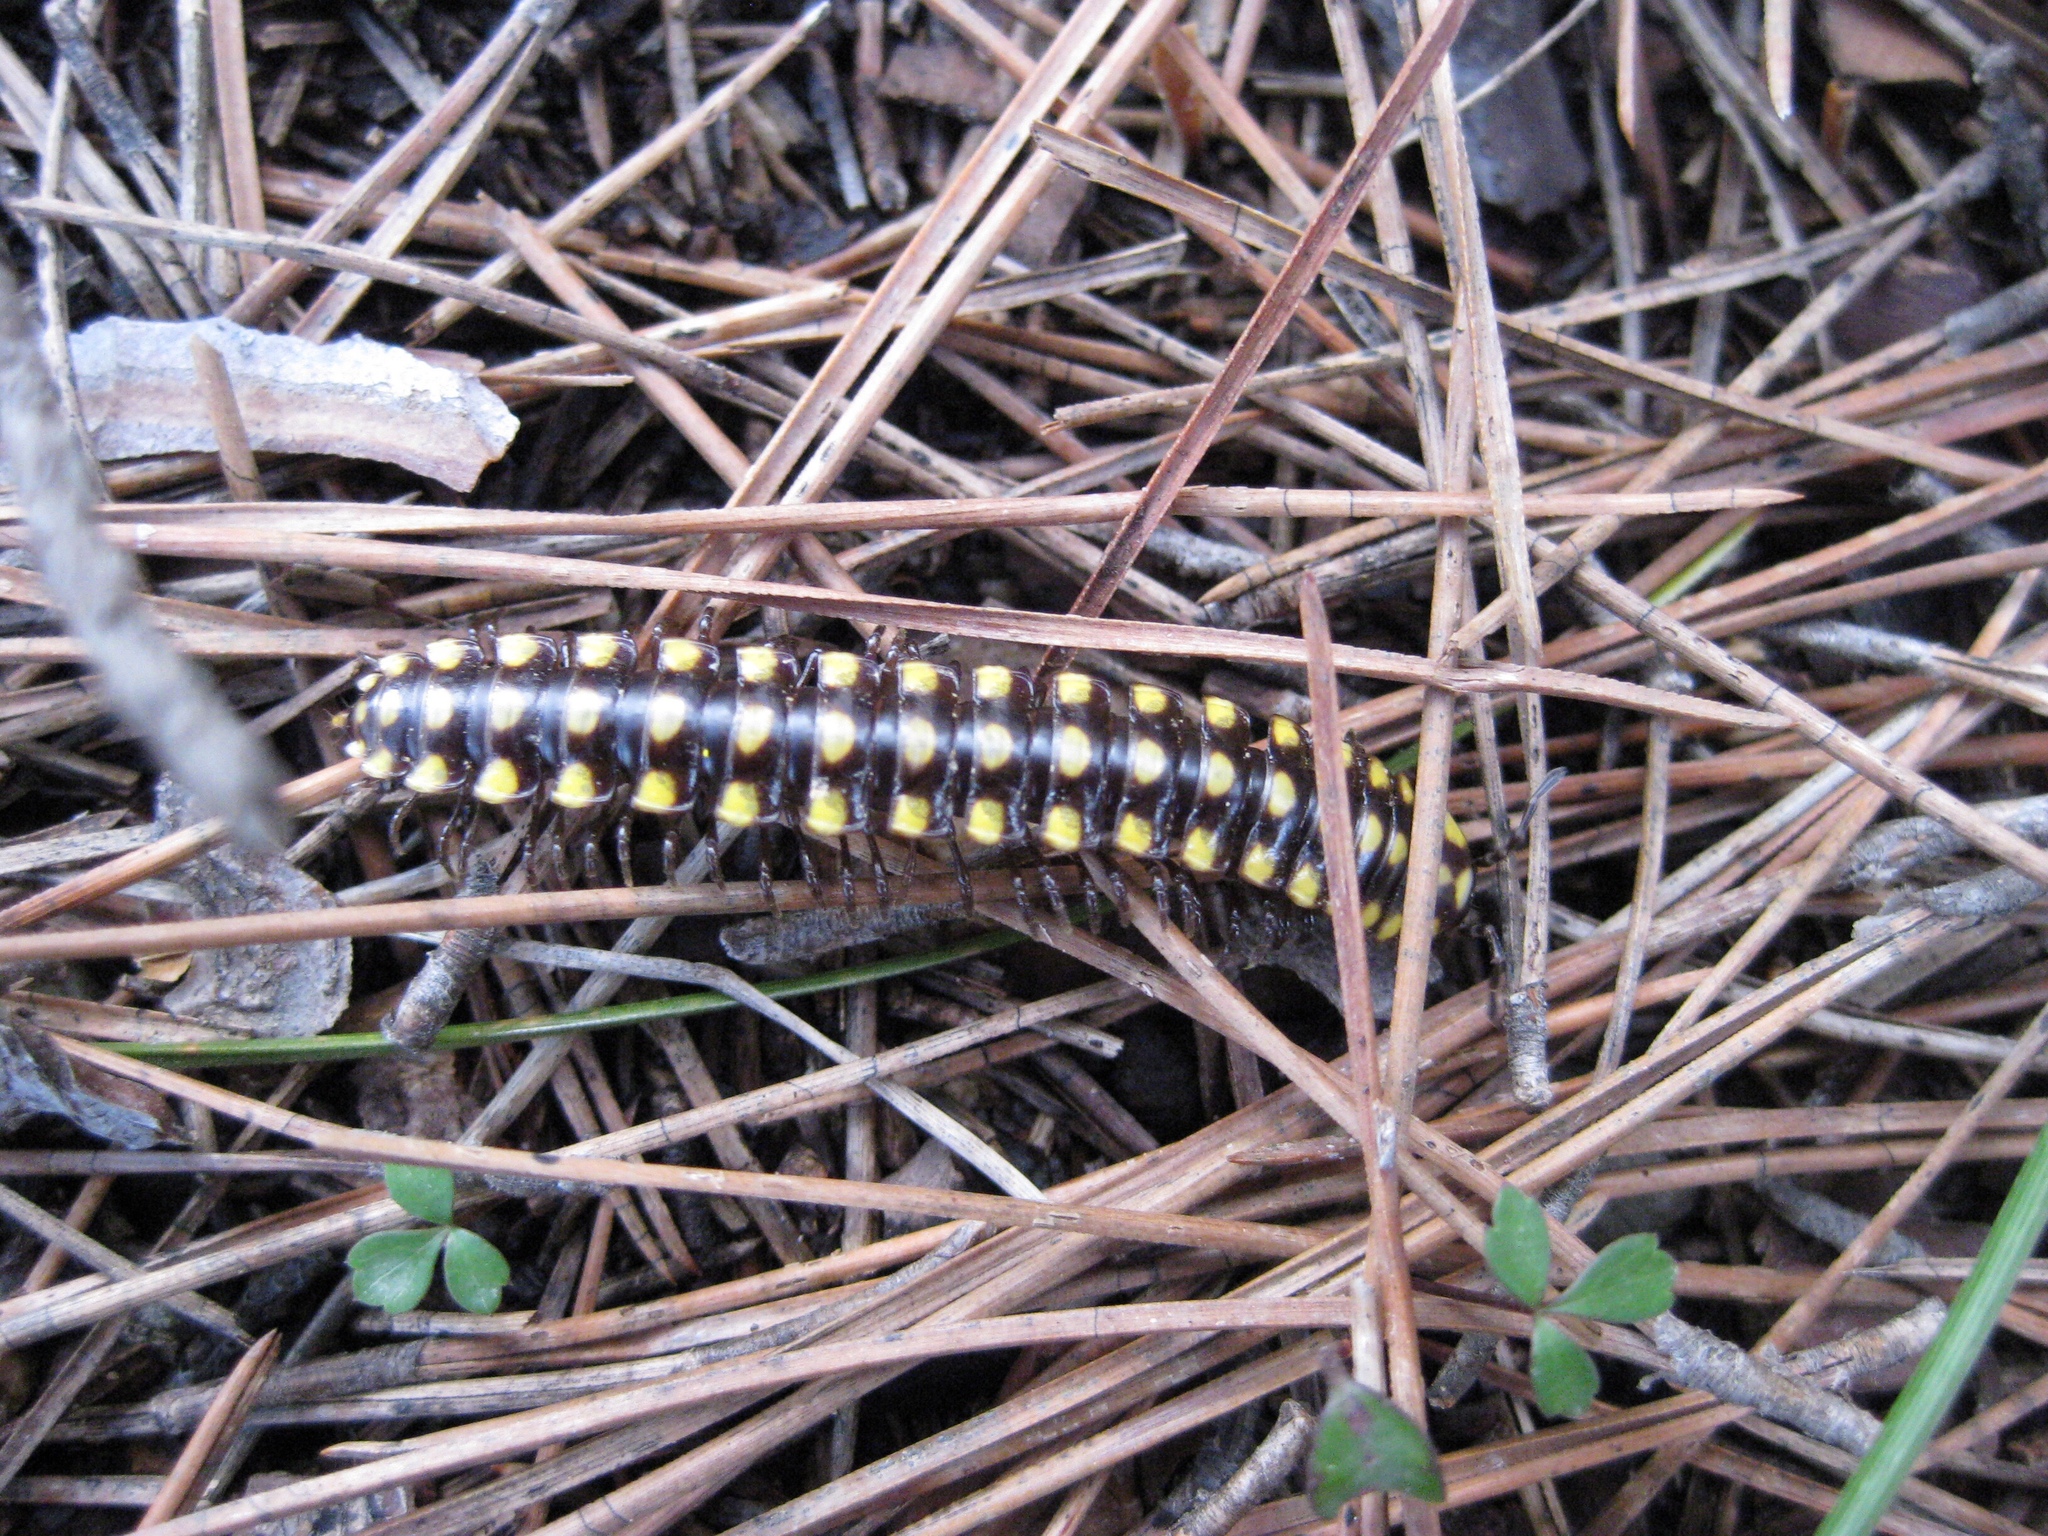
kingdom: Animalia
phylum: Arthropoda
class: Diplopoda
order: Polydesmida
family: Xystodesmidae
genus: Melaphe
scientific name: Melaphe vestita
